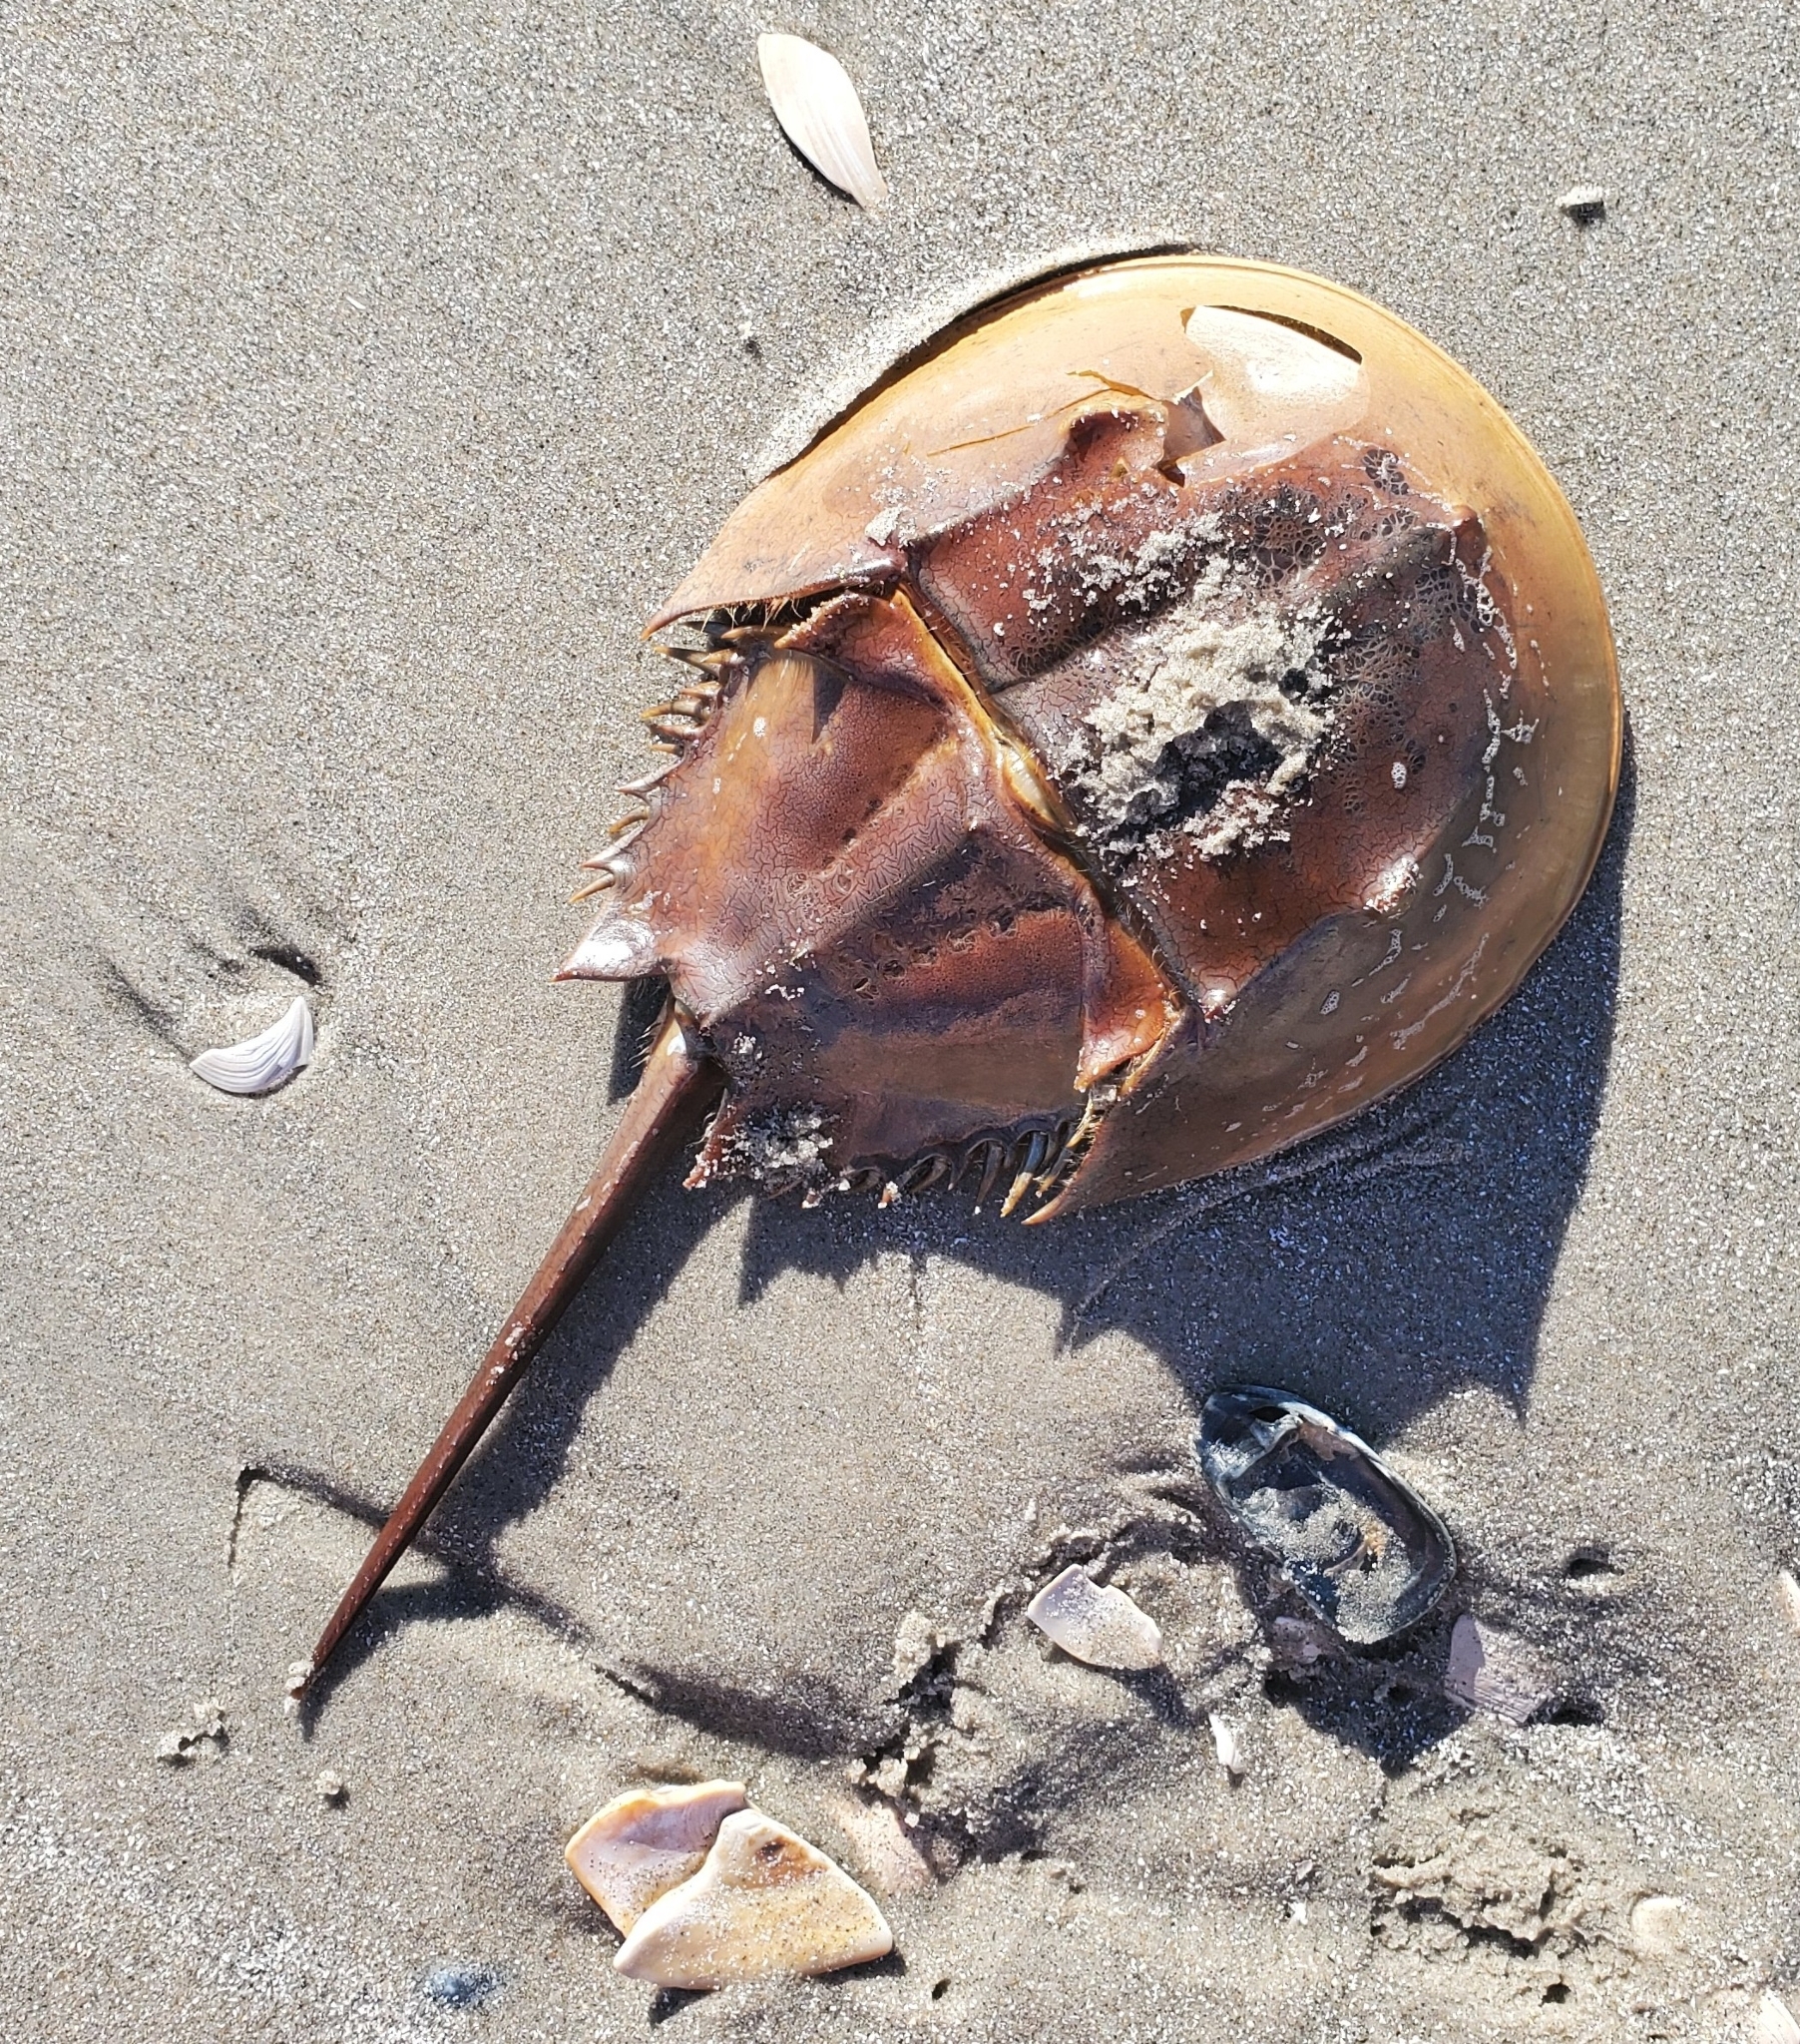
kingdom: Animalia
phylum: Arthropoda
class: Merostomata
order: Xiphosurida
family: Limulidae
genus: Limulus
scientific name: Limulus polyphemus
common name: Horseshoe crab
